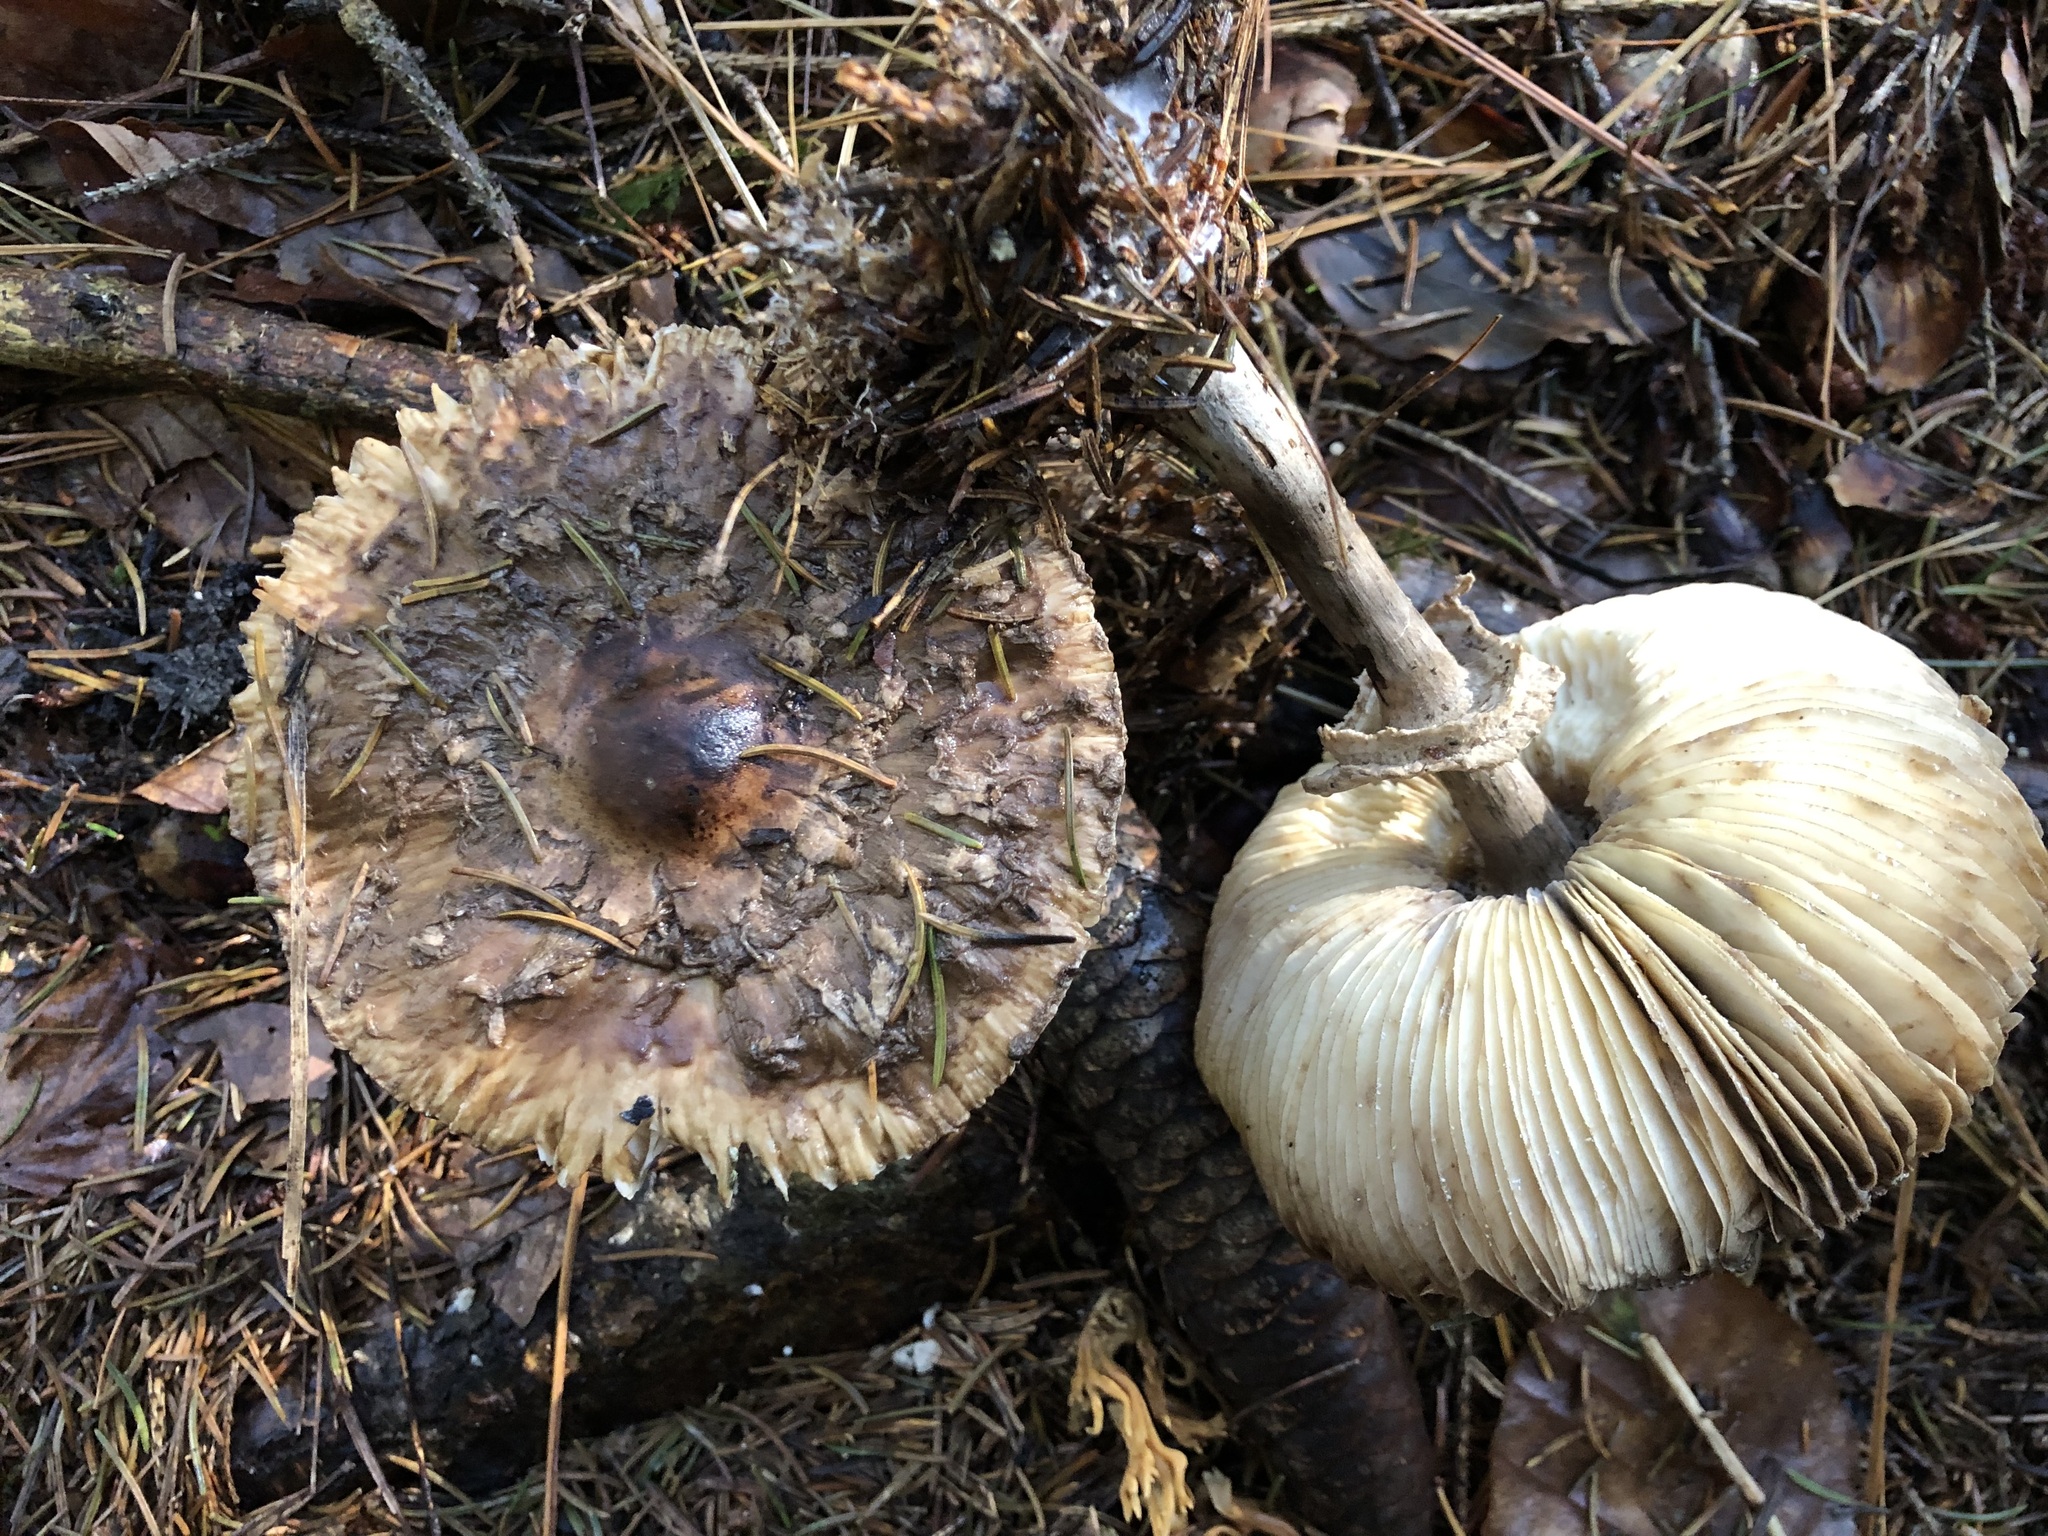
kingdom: Fungi
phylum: Basidiomycota
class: Agaricomycetes
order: Agaricales
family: Agaricaceae
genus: Chlorophyllum
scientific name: Chlorophyllum olivieri
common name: Conifer parasol
